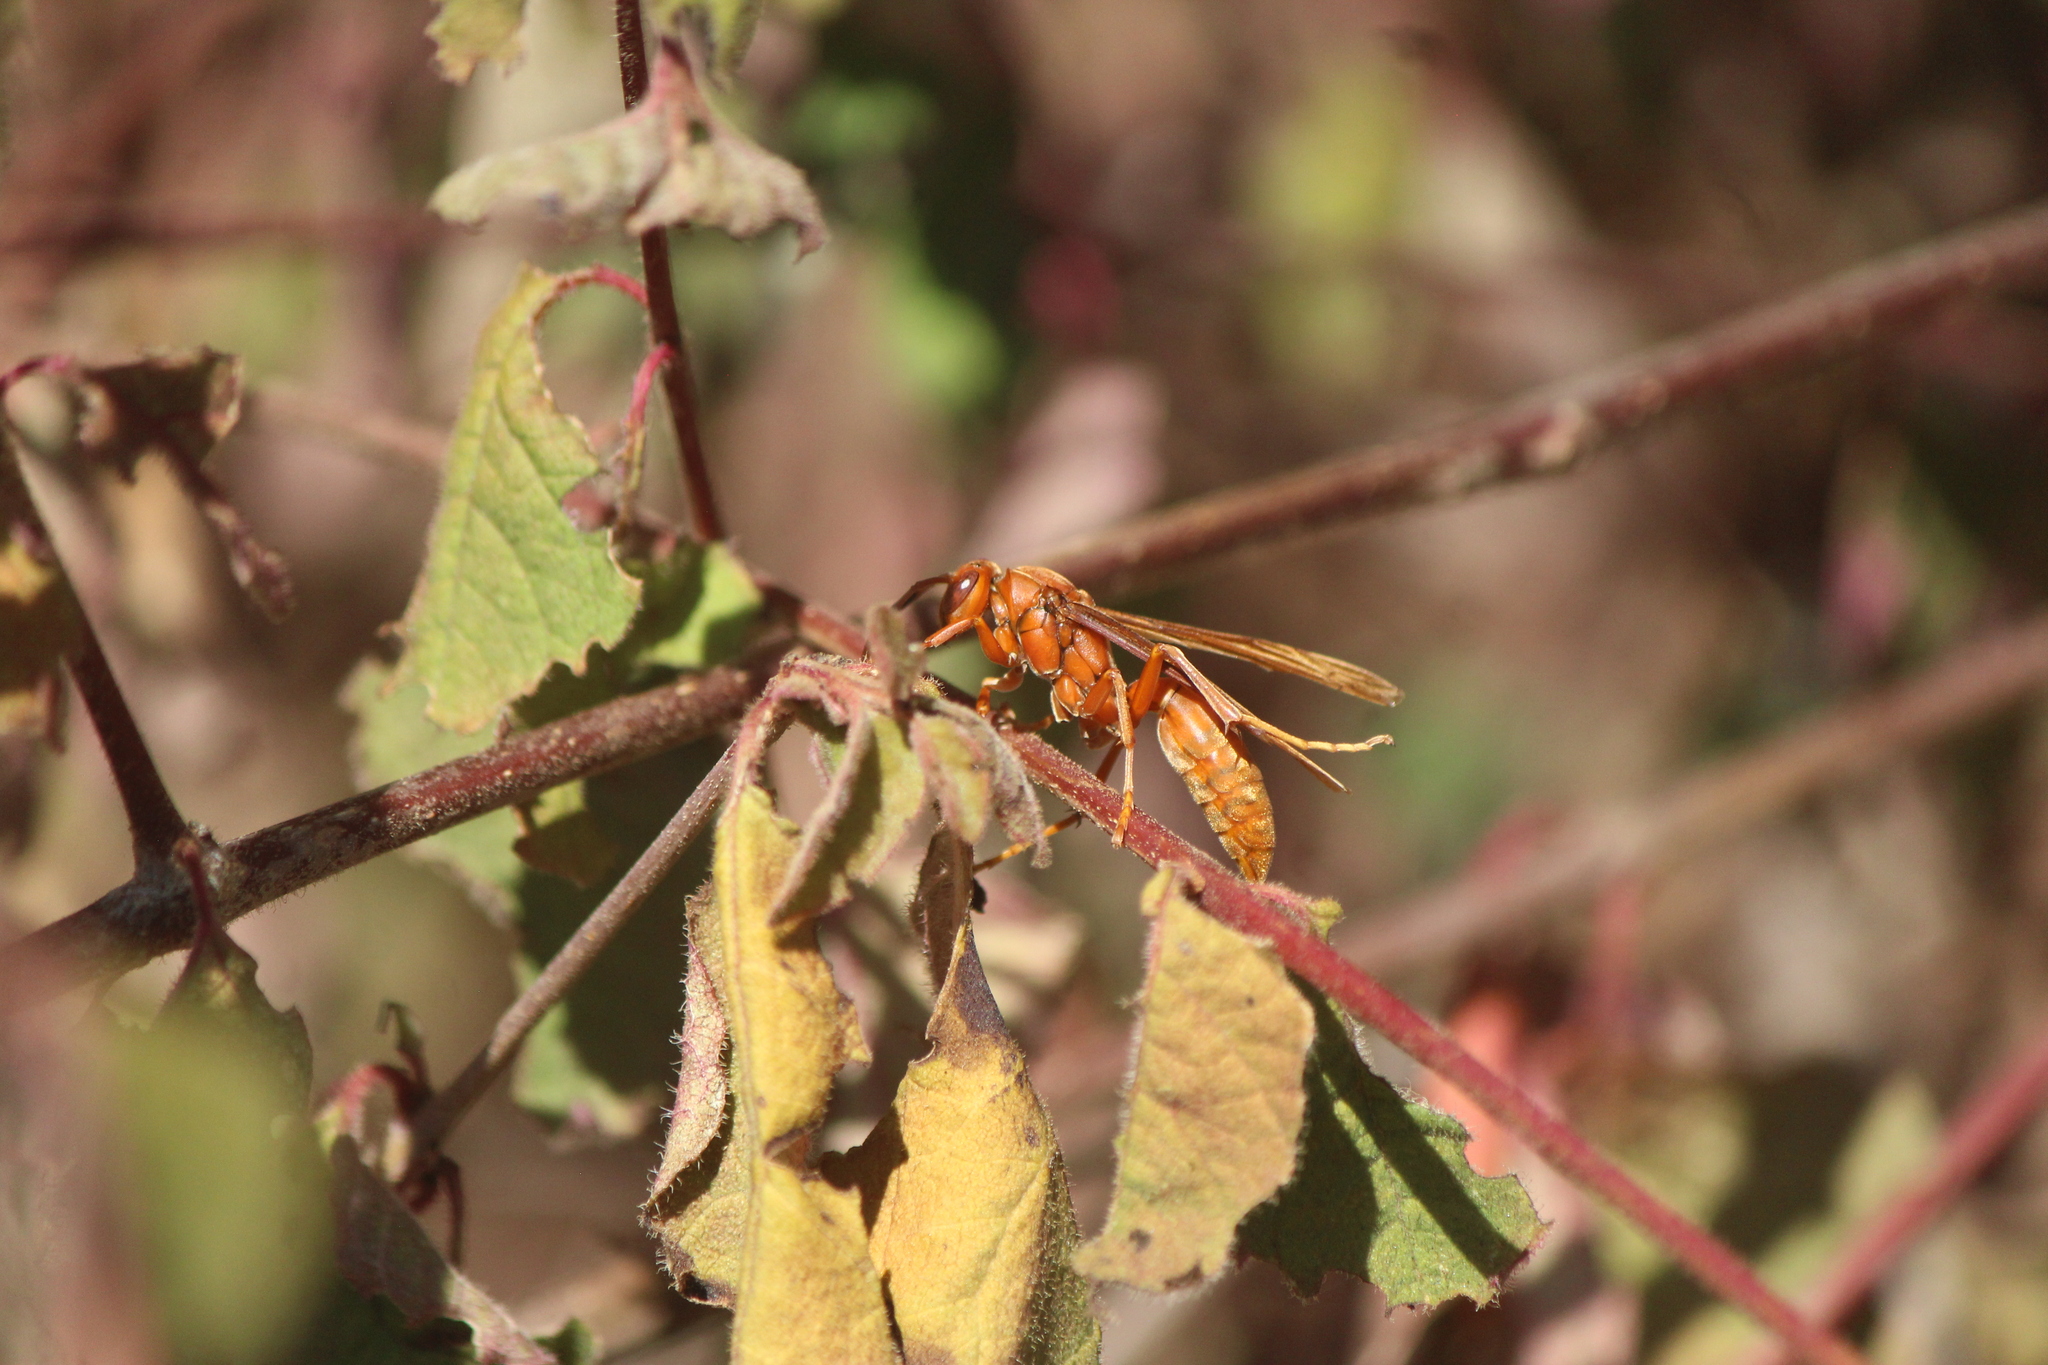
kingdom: Animalia
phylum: Arthropoda
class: Insecta
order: Hymenoptera
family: Eumenidae
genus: Polistes
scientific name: Polistes canadensis
